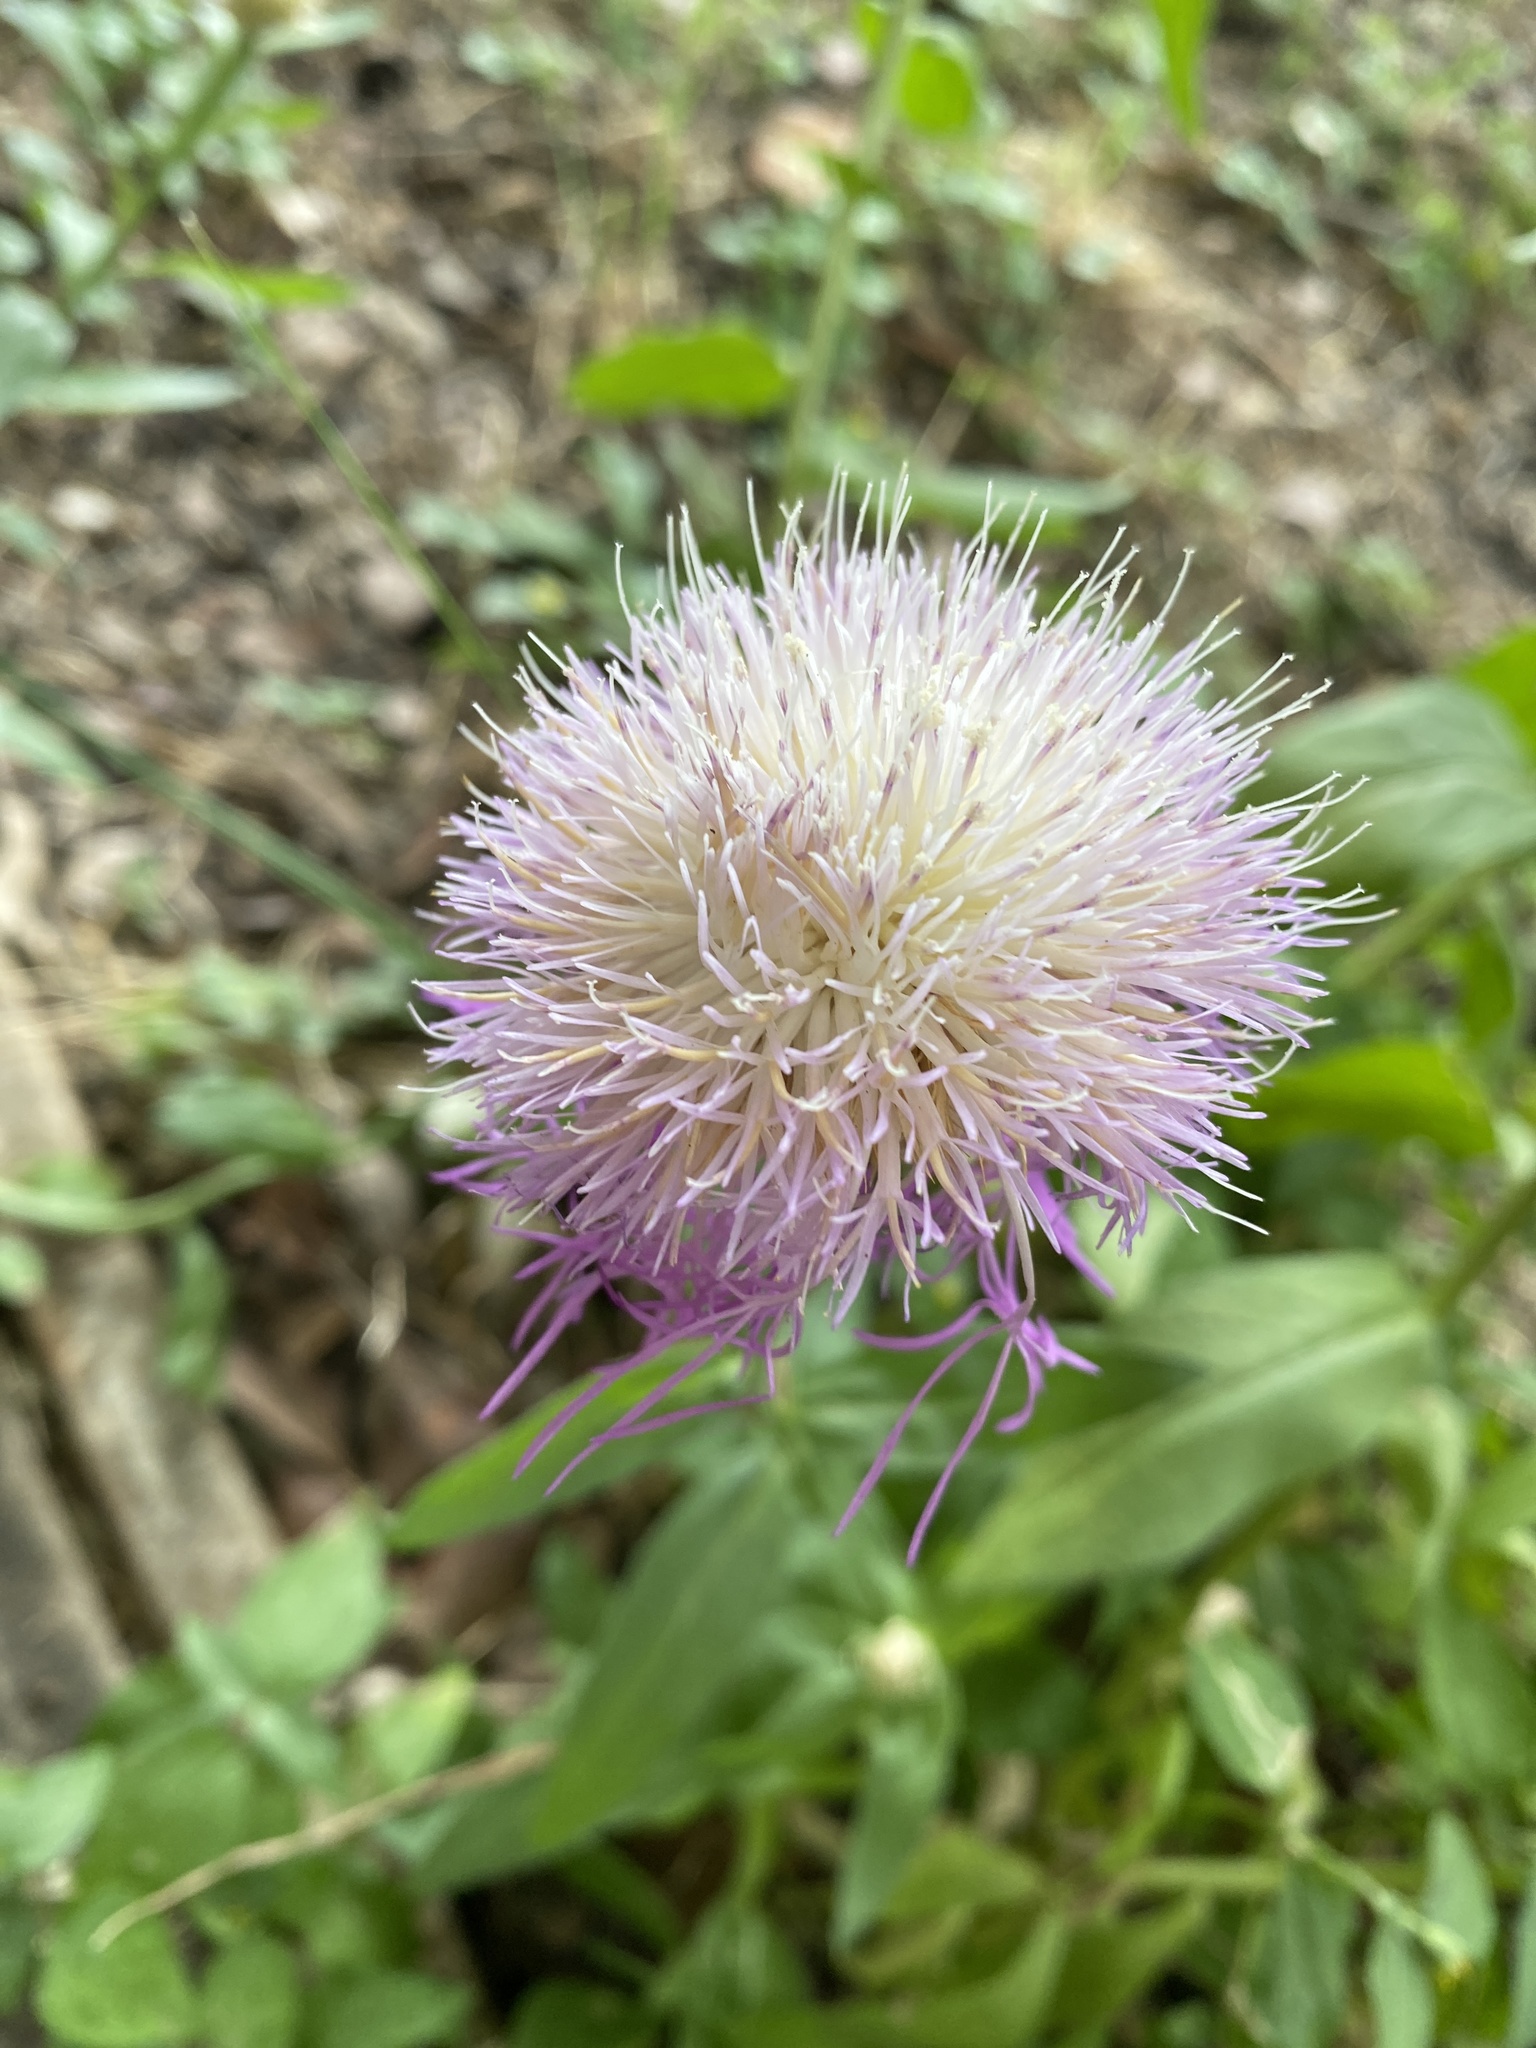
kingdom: Plantae
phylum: Tracheophyta
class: Magnoliopsida
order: Asterales
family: Asteraceae
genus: Plectocephalus
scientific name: Plectocephalus americanus
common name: American basket-flower
